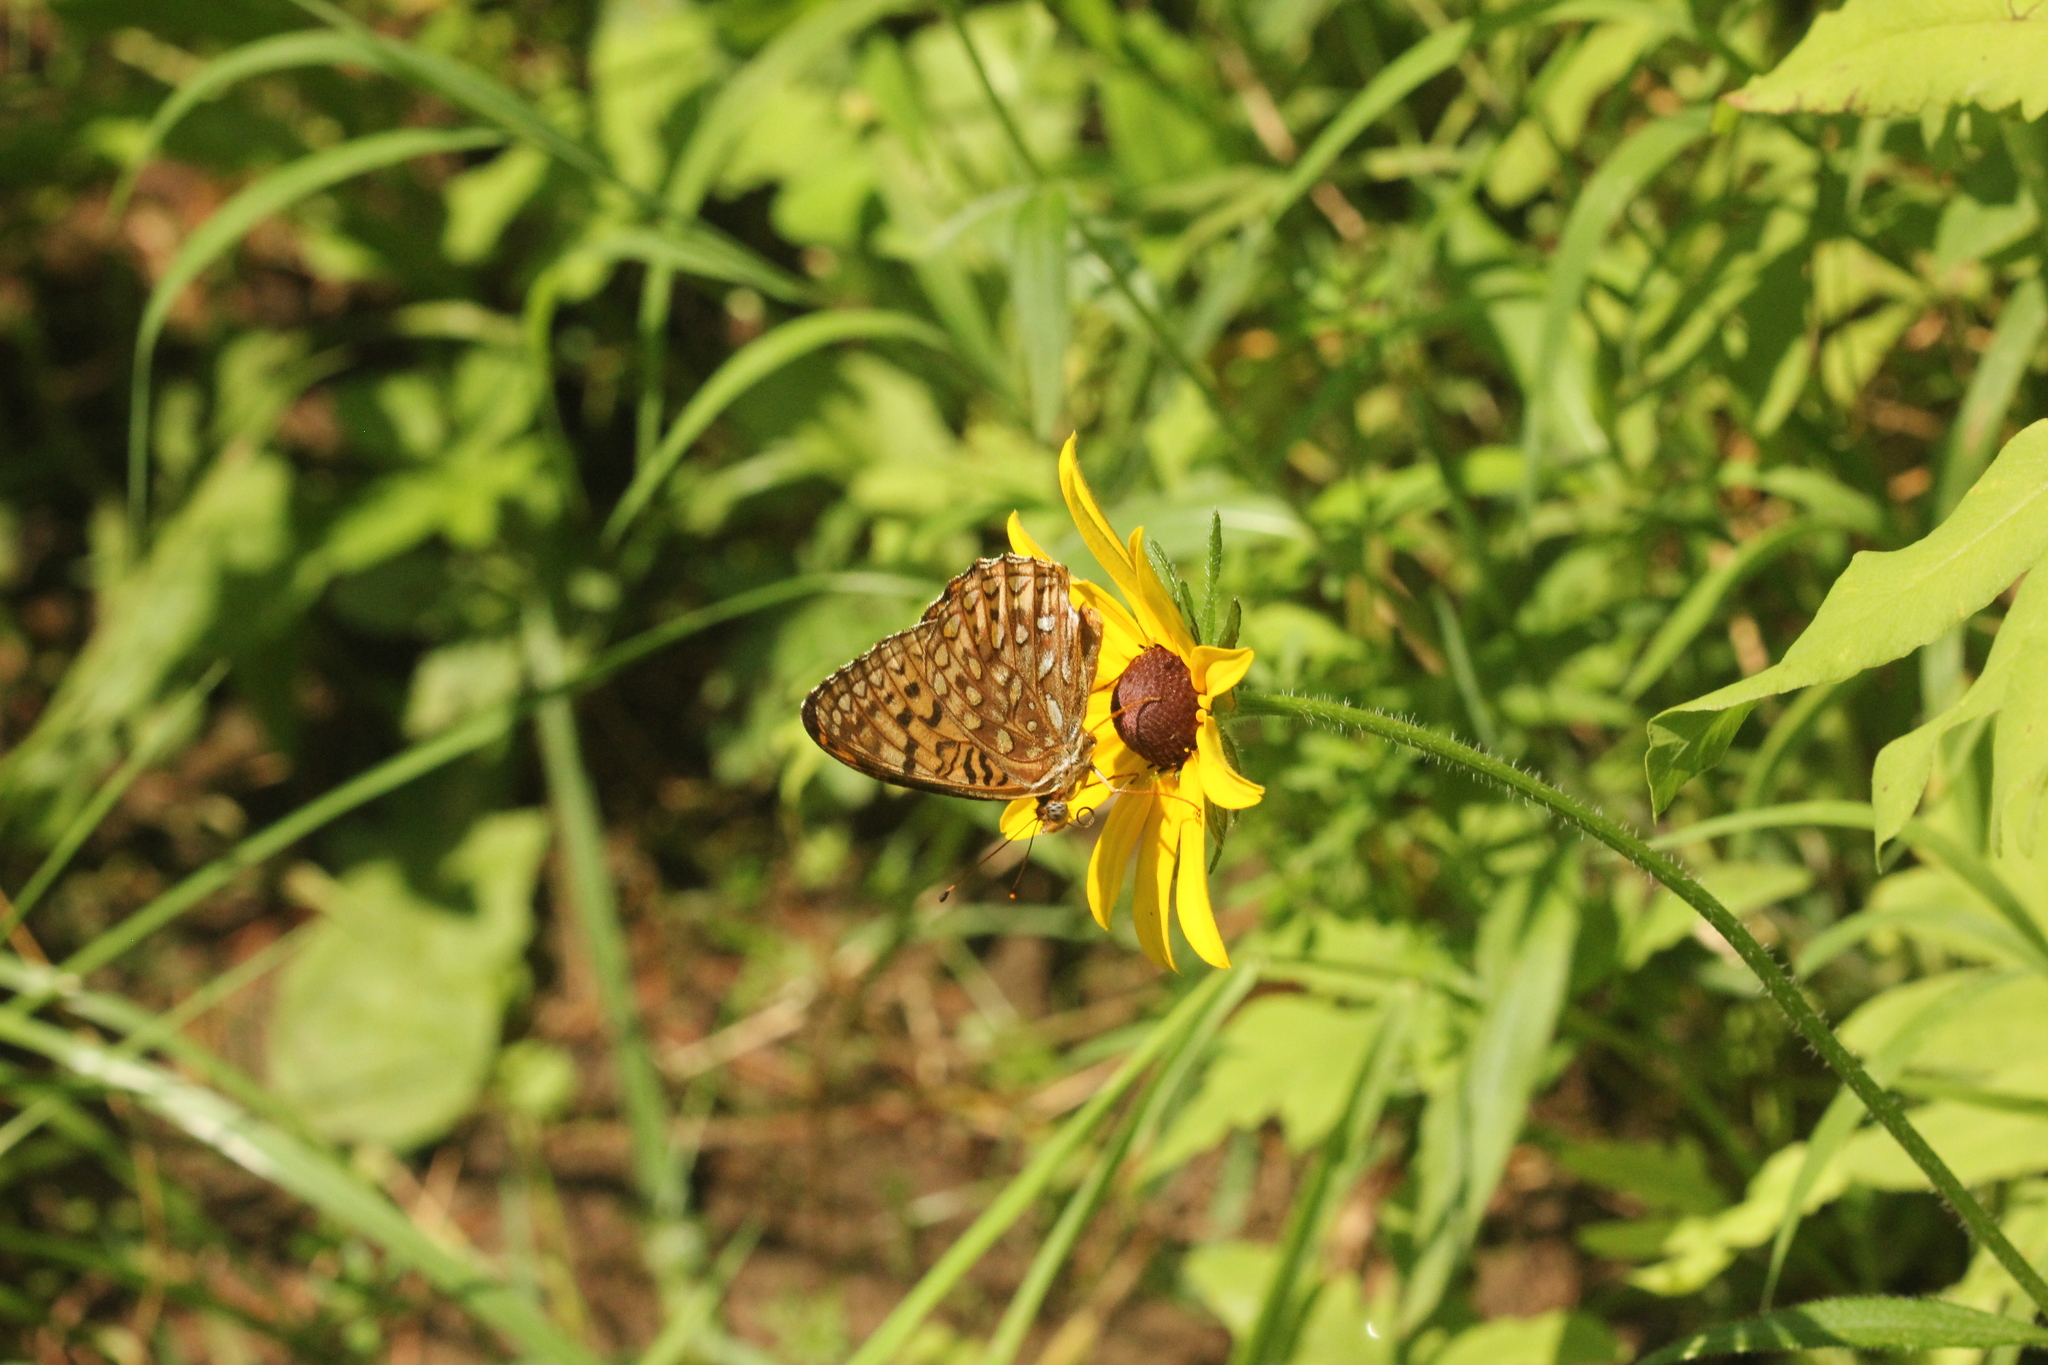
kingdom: Animalia
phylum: Arthropoda
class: Insecta
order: Lepidoptera
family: Nymphalidae
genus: Speyeria
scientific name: Speyeria atlantis
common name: Atlantis fritillary
